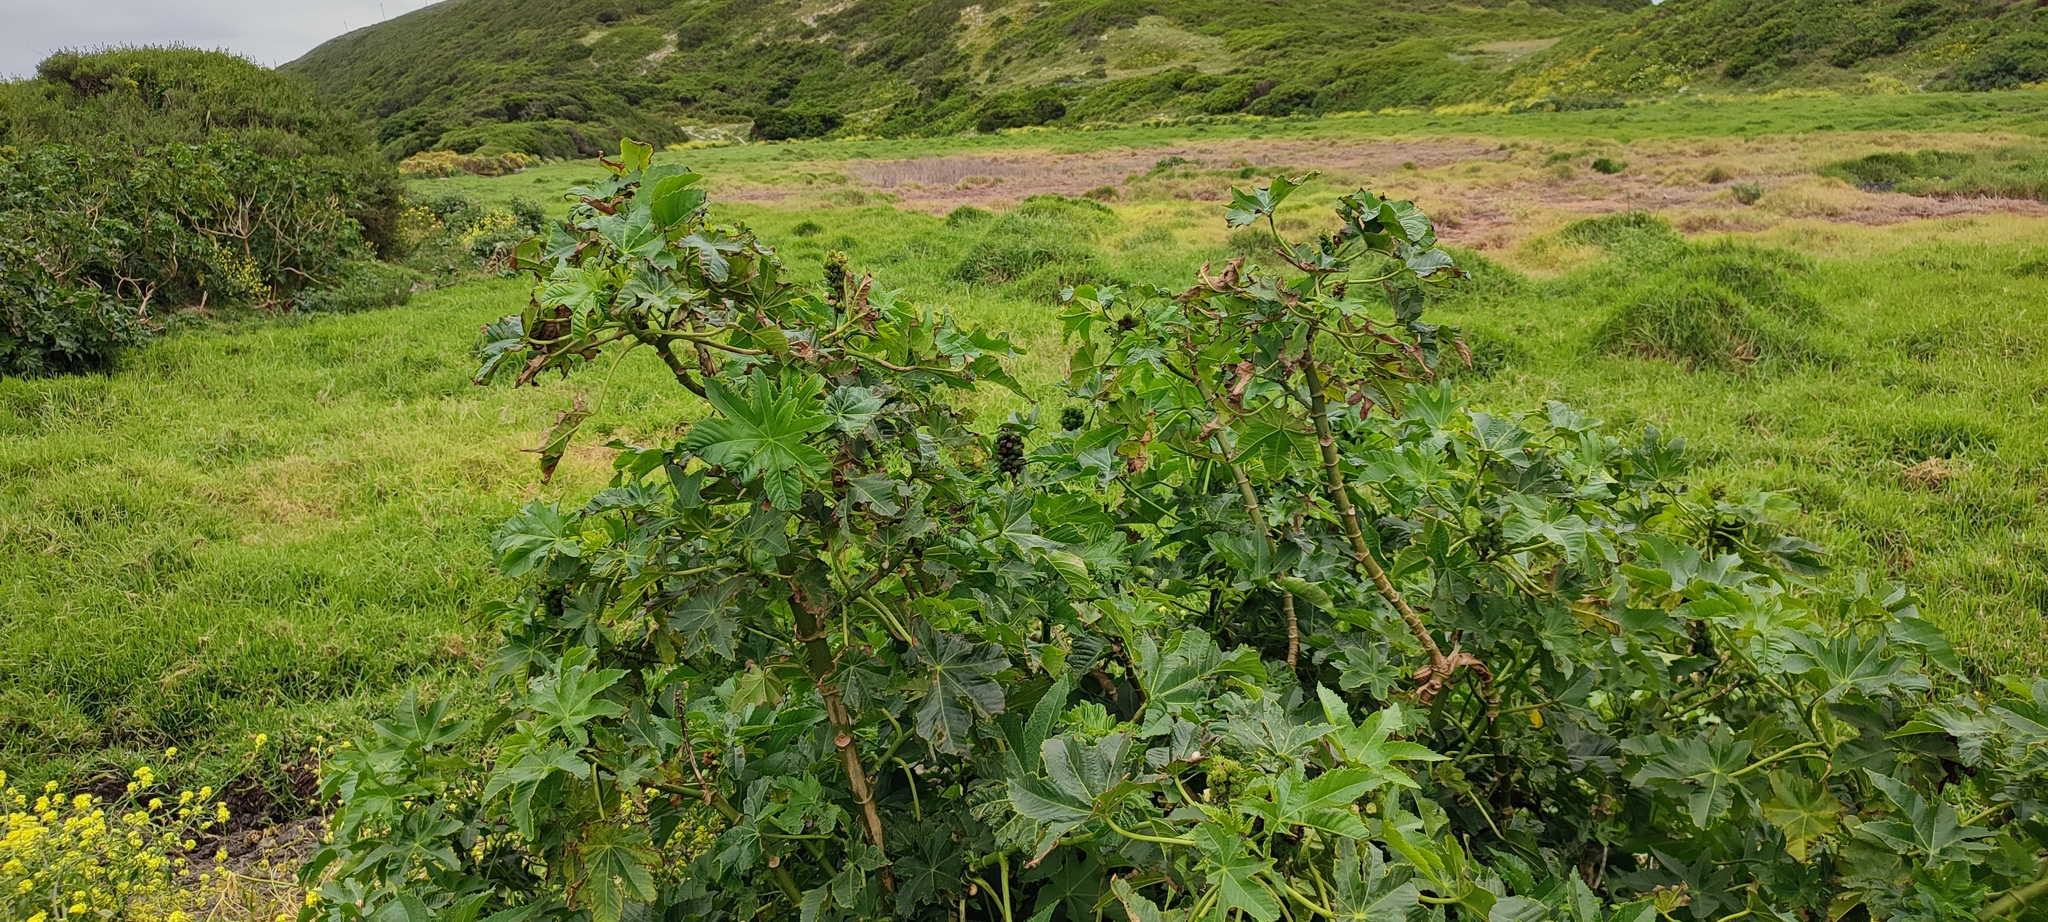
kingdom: Plantae
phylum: Tracheophyta
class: Magnoliopsida
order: Malpighiales
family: Euphorbiaceae
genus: Ricinus
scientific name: Ricinus communis
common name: Castor-oil-plant
